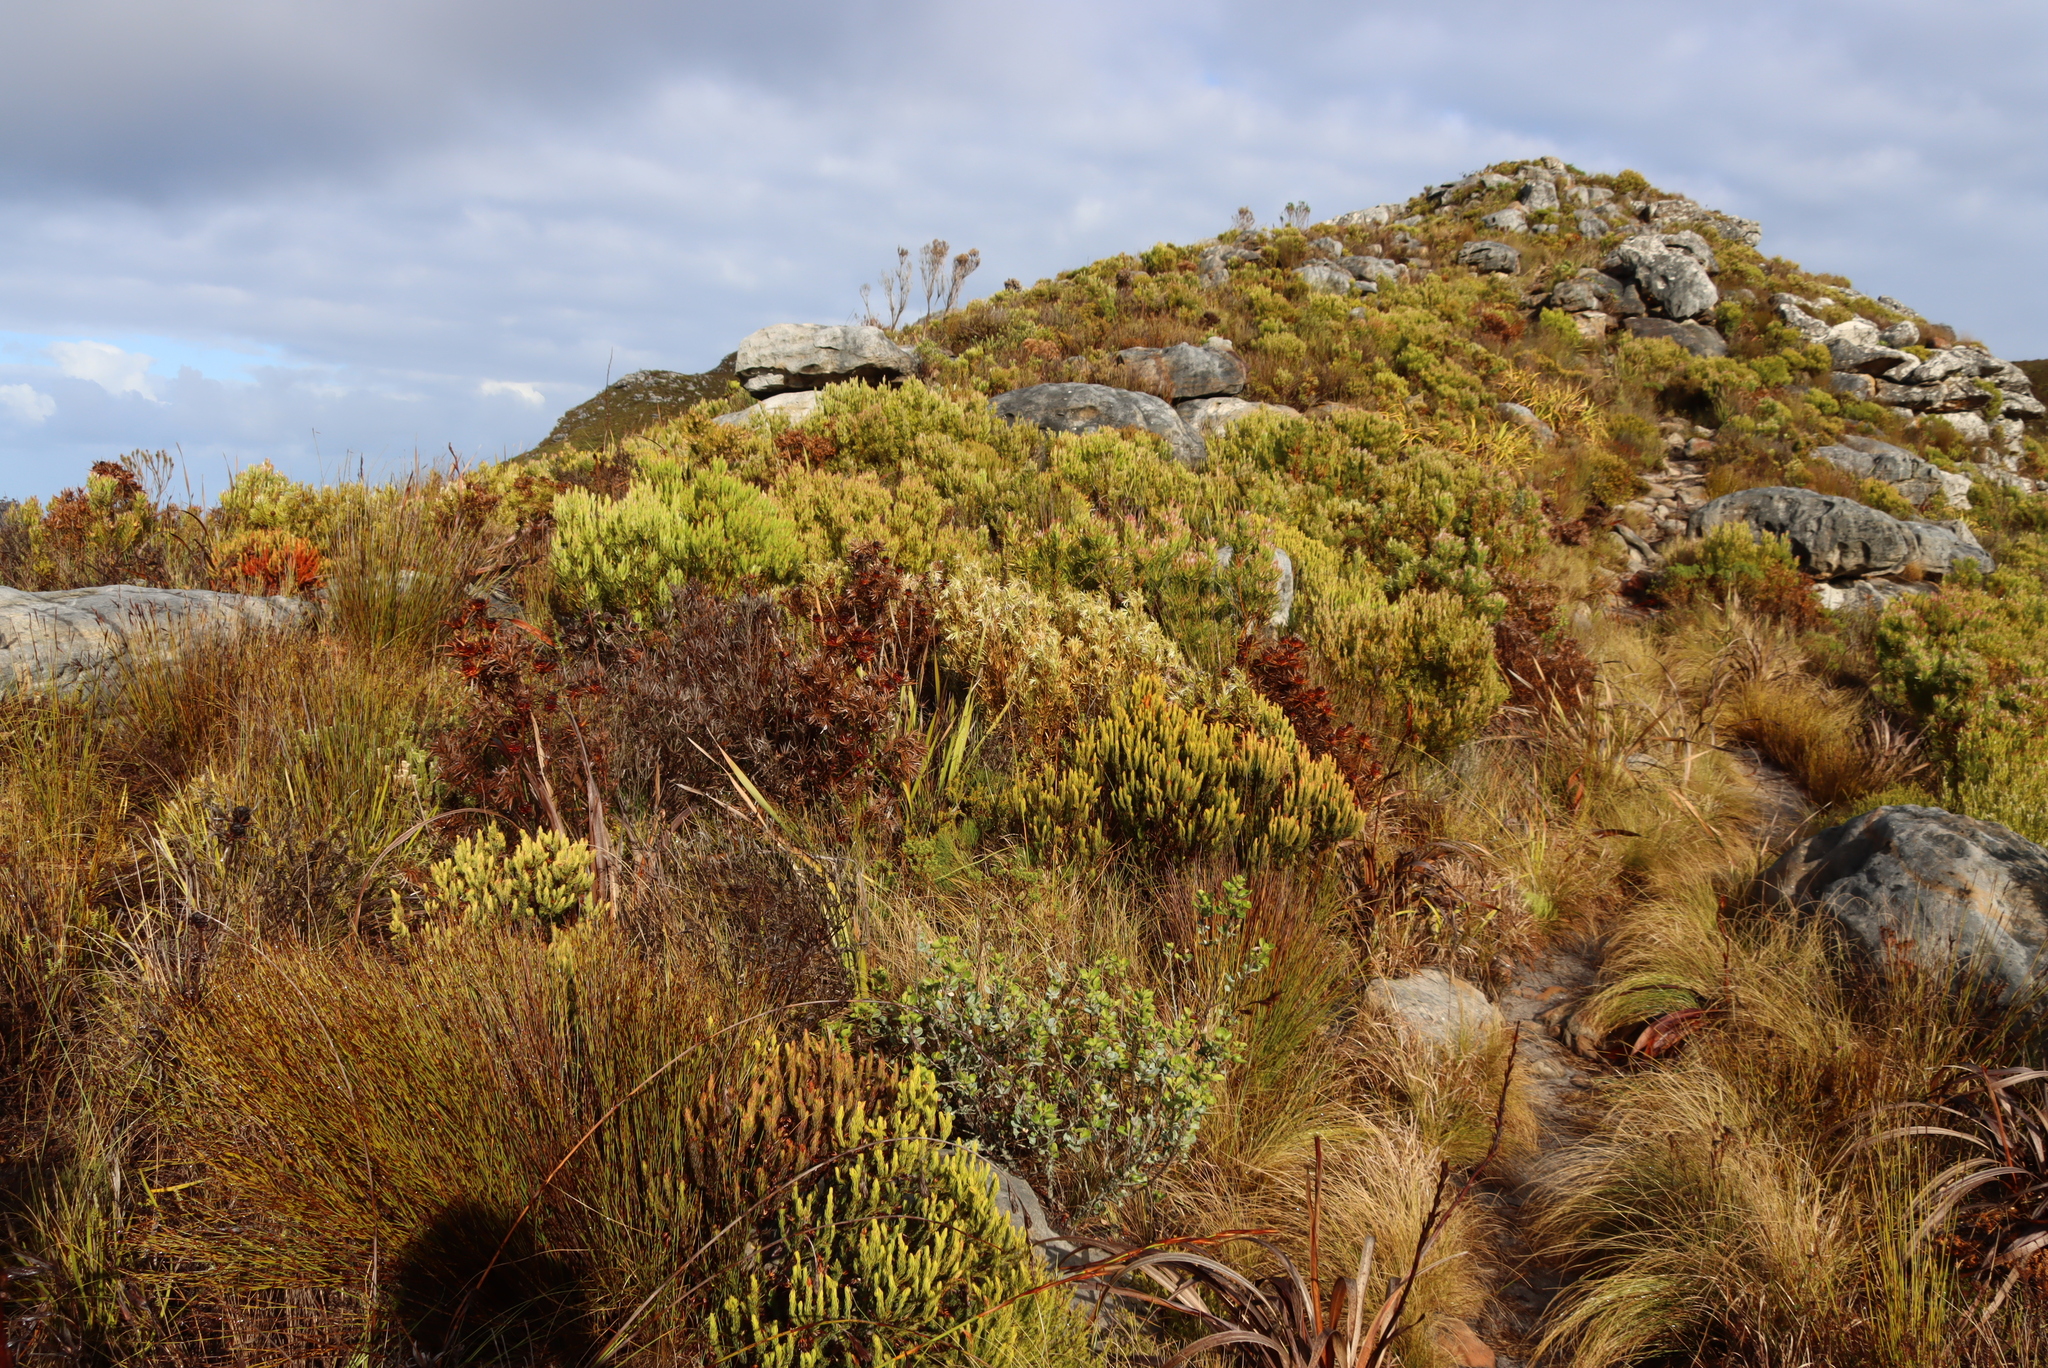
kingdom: Plantae
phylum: Tracheophyta
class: Magnoliopsida
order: Proteales
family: Proteaceae
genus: Leucadendron
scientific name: Leucadendron xanthoconus
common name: Sickle-leaf conebush
